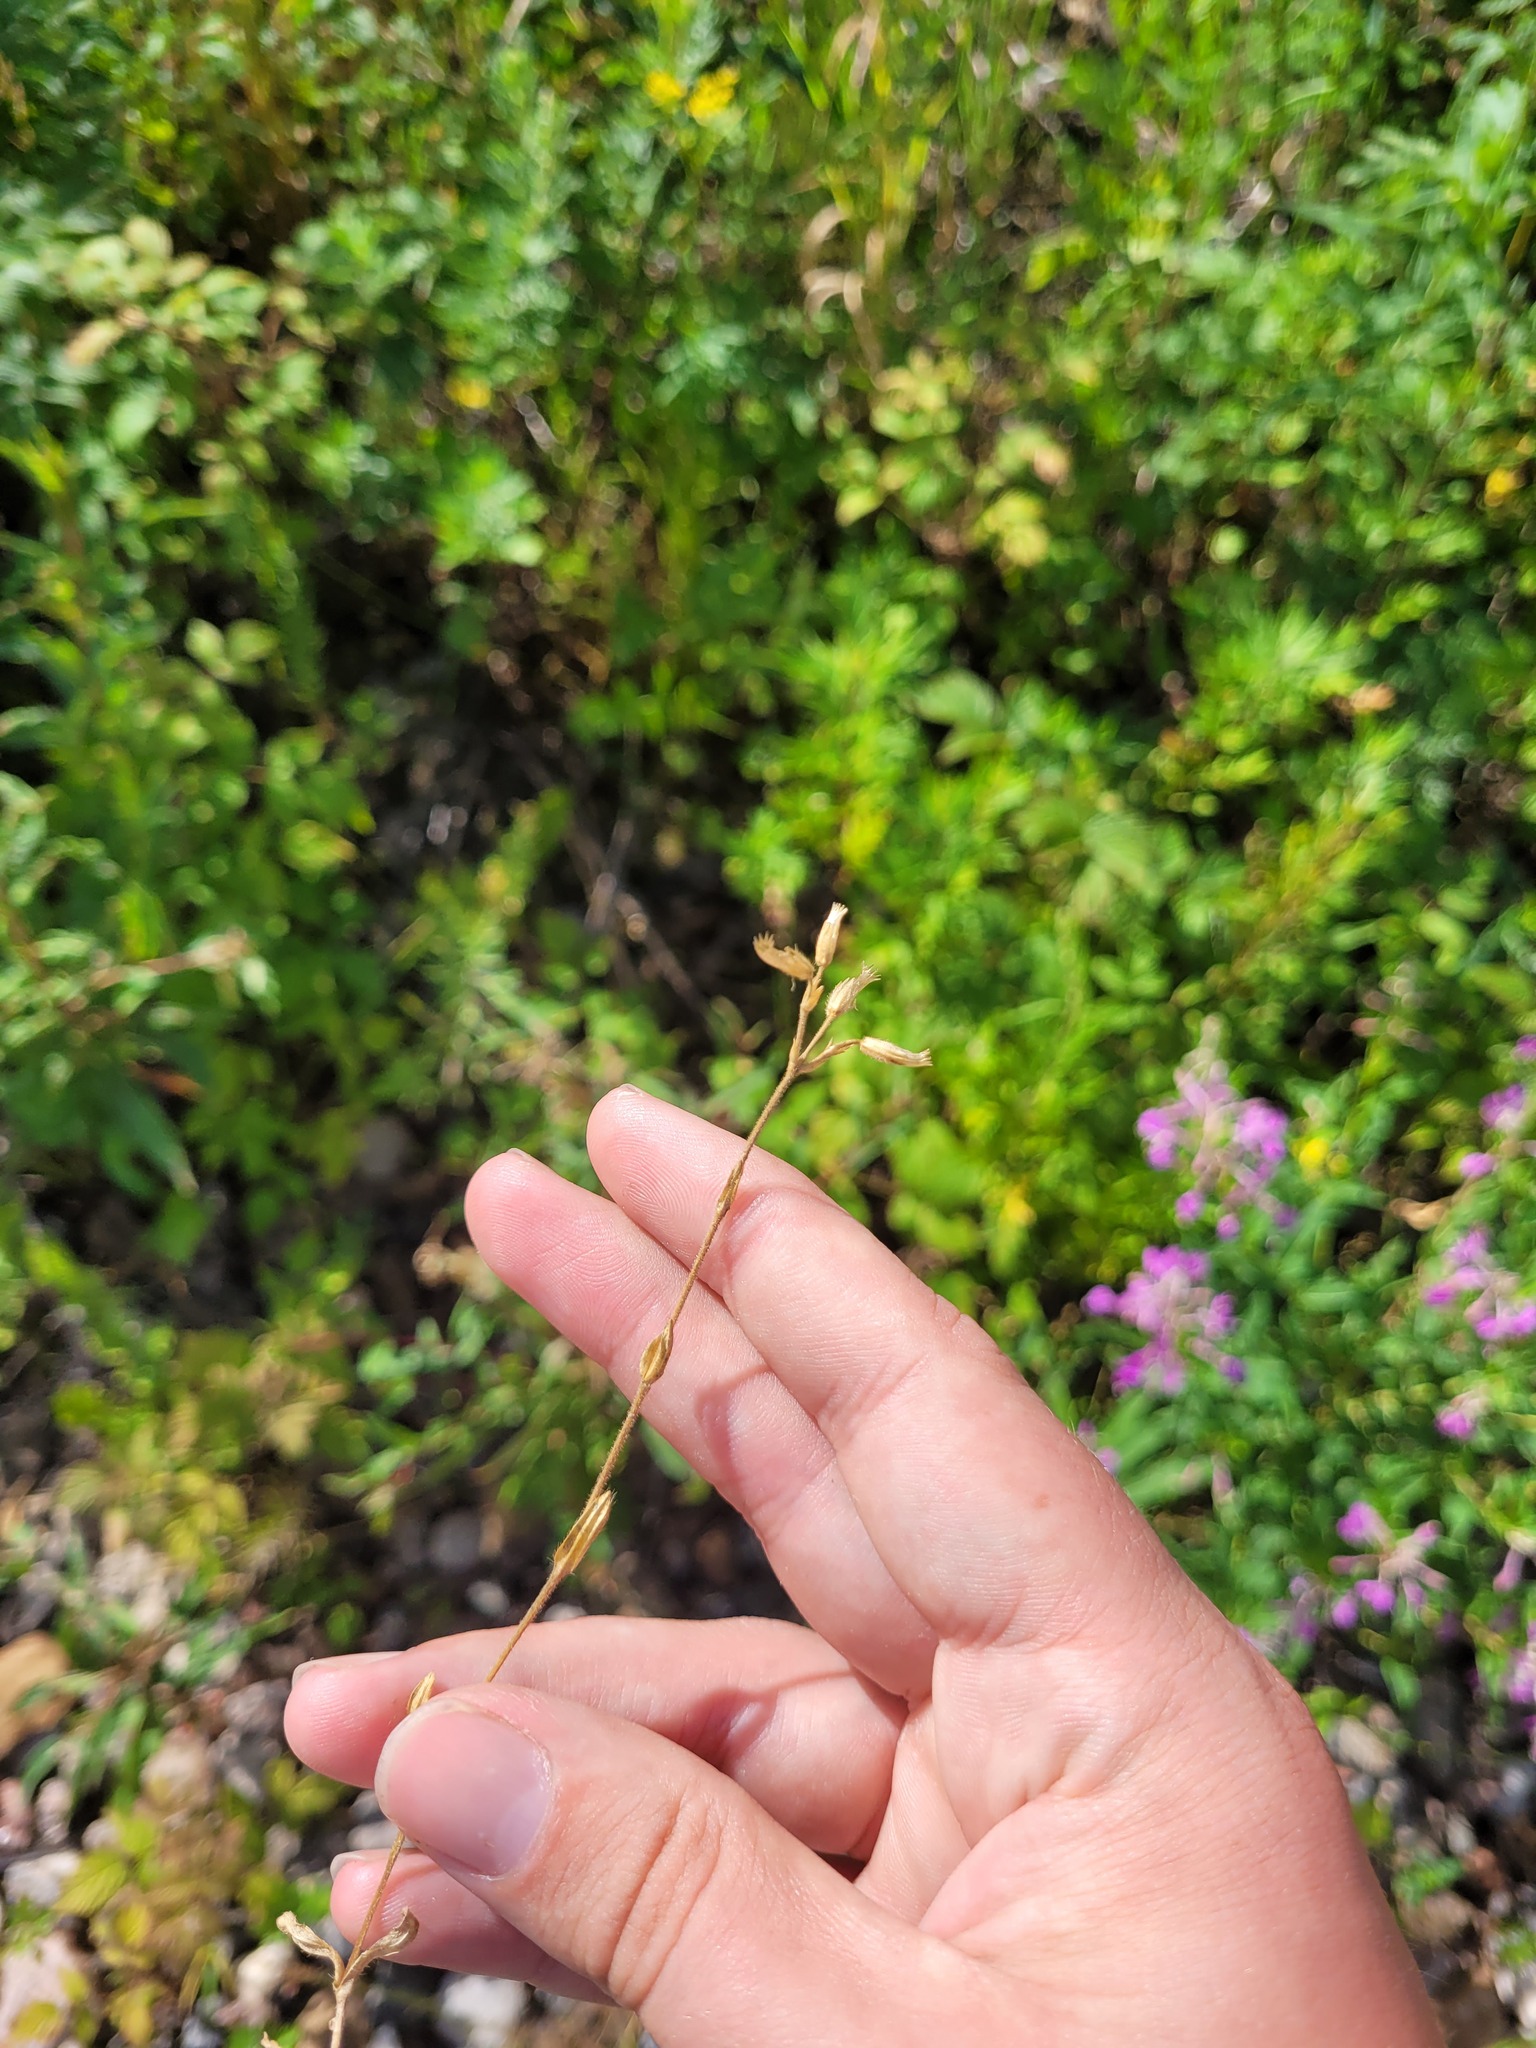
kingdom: Plantae
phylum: Tracheophyta
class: Magnoliopsida
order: Caryophyllales
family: Caryophyllaceae
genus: Cerastium
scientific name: Cerastium holosteoides
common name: Big chickweed
